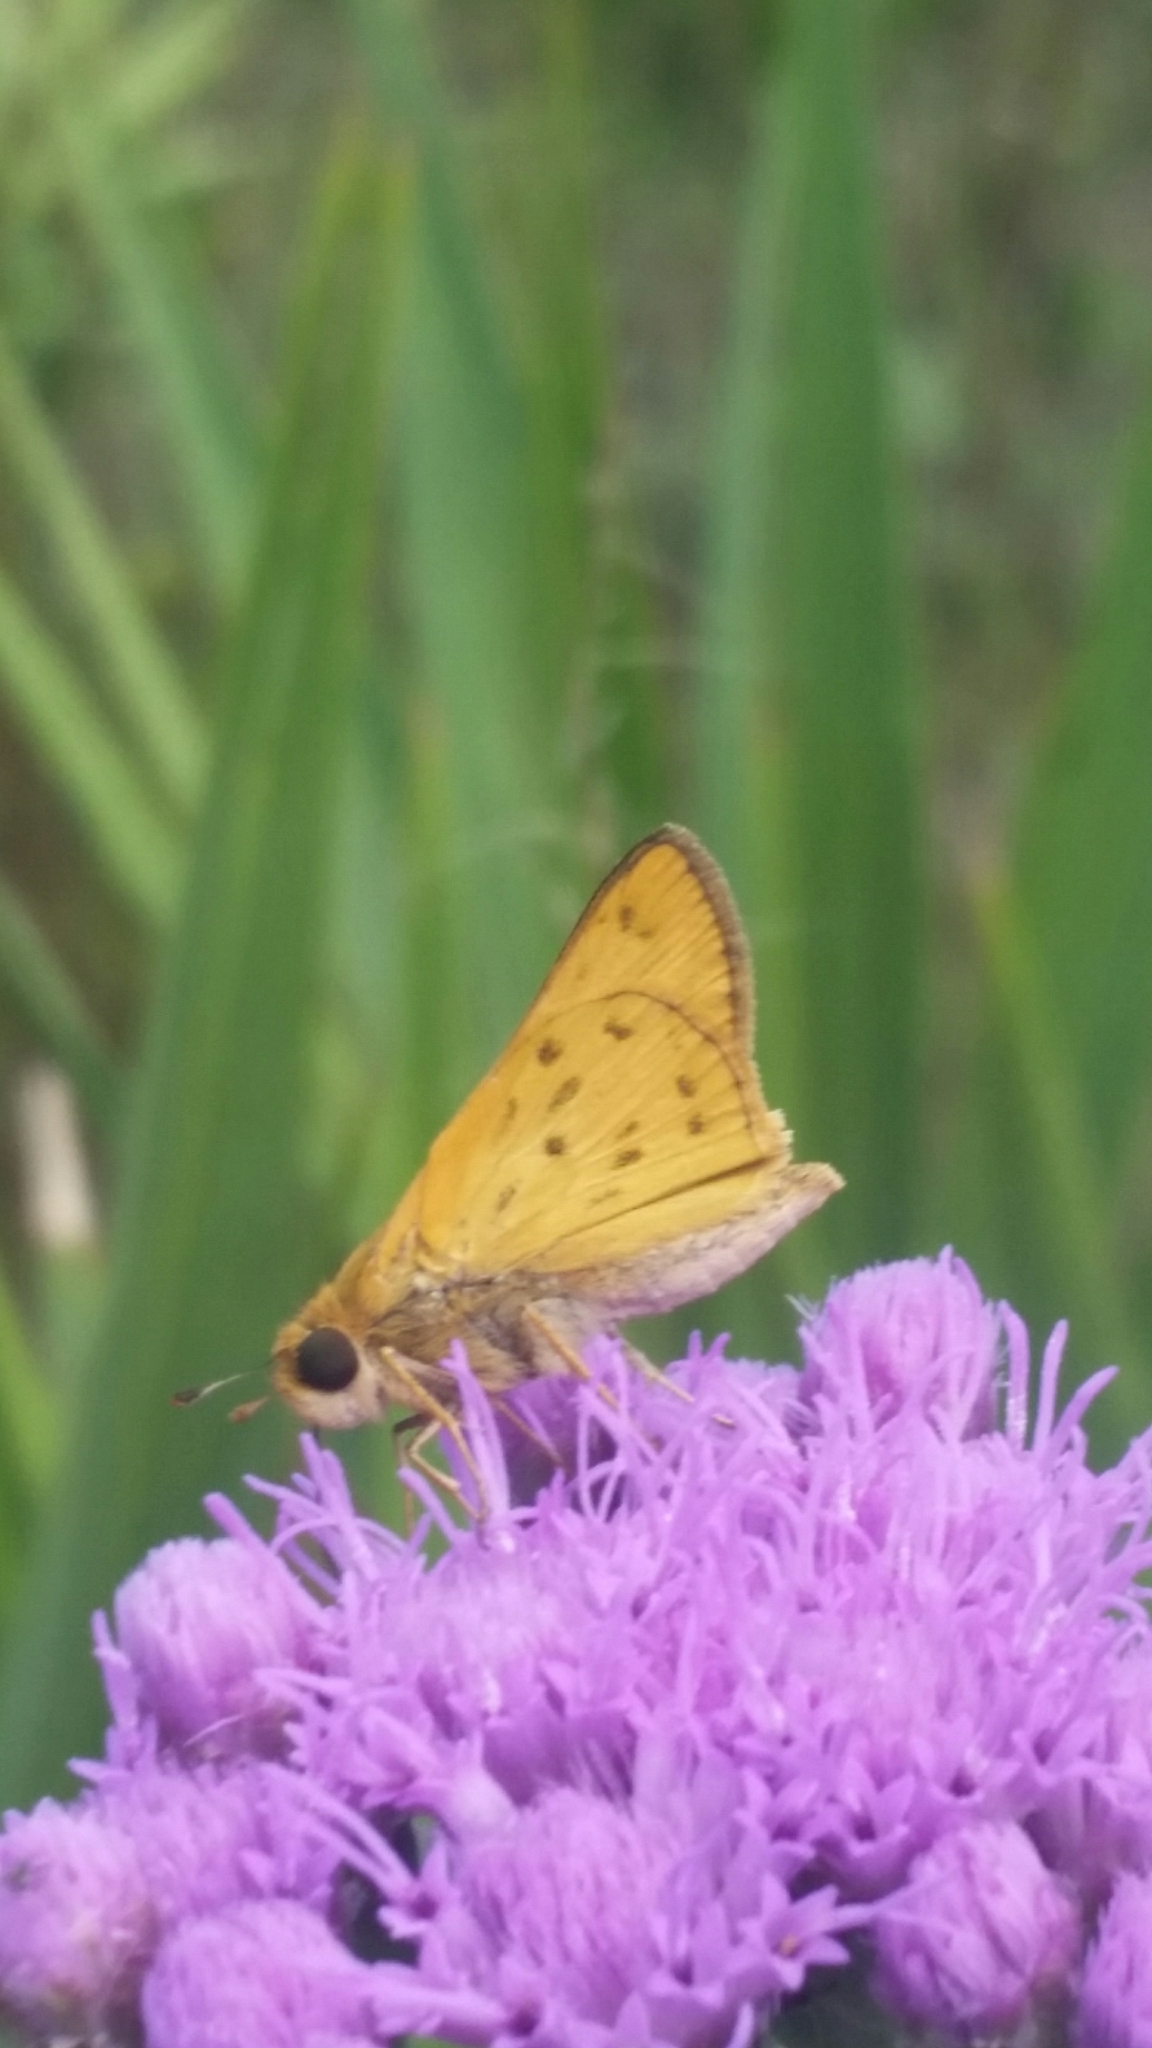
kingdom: Animalia
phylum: Arthropoda
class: Insecta
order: Lepidoptera
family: Hesperiidae
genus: Hylephila
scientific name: Hylephila phyleus
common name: Fiery skipper
